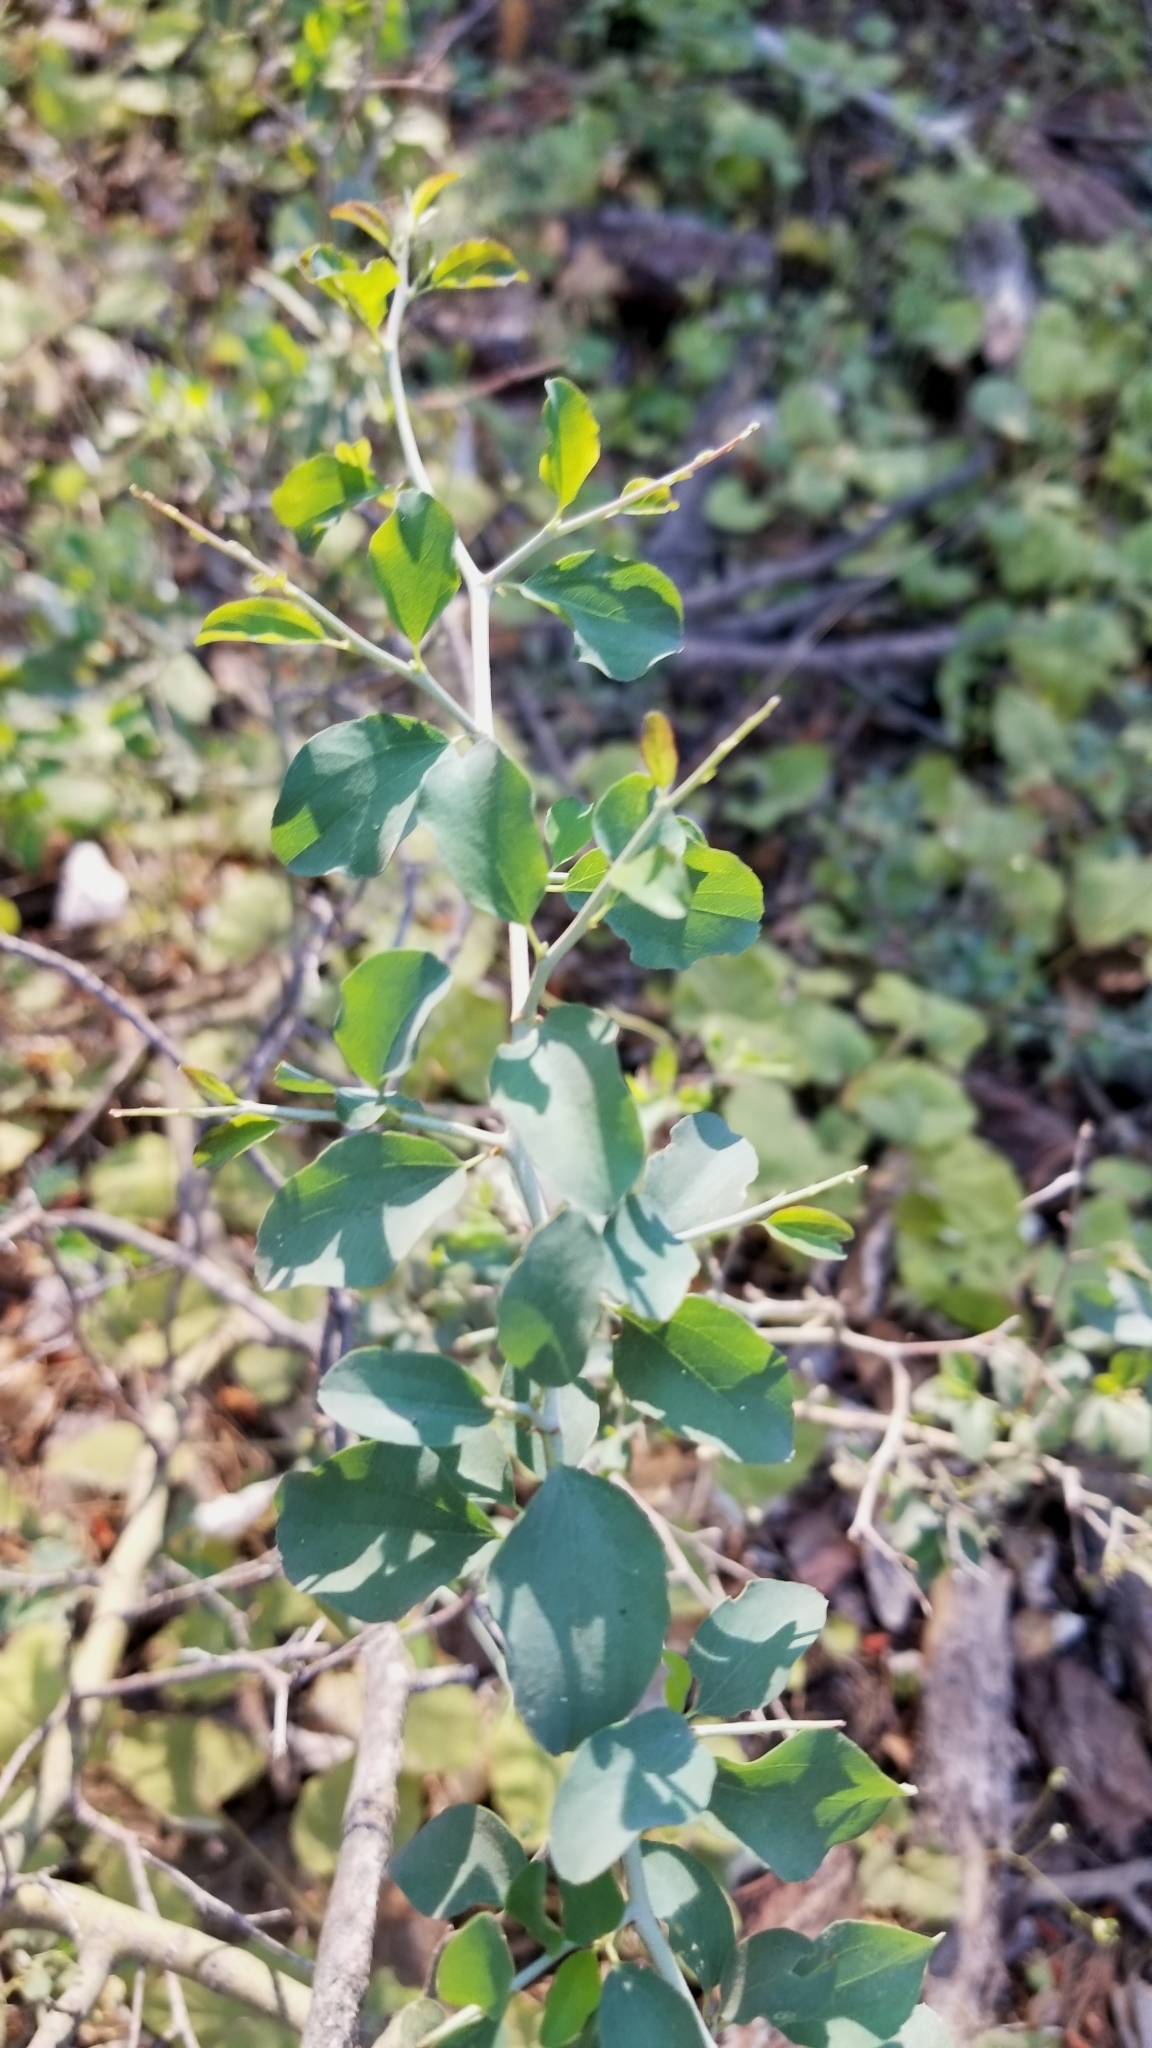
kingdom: Plantae
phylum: Tracheophyta
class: Magnoliopsida
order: Rosales
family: Rhamnaceae
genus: Ceanothus
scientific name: Ceanothus cordulatus
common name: Mountain whitethorn
